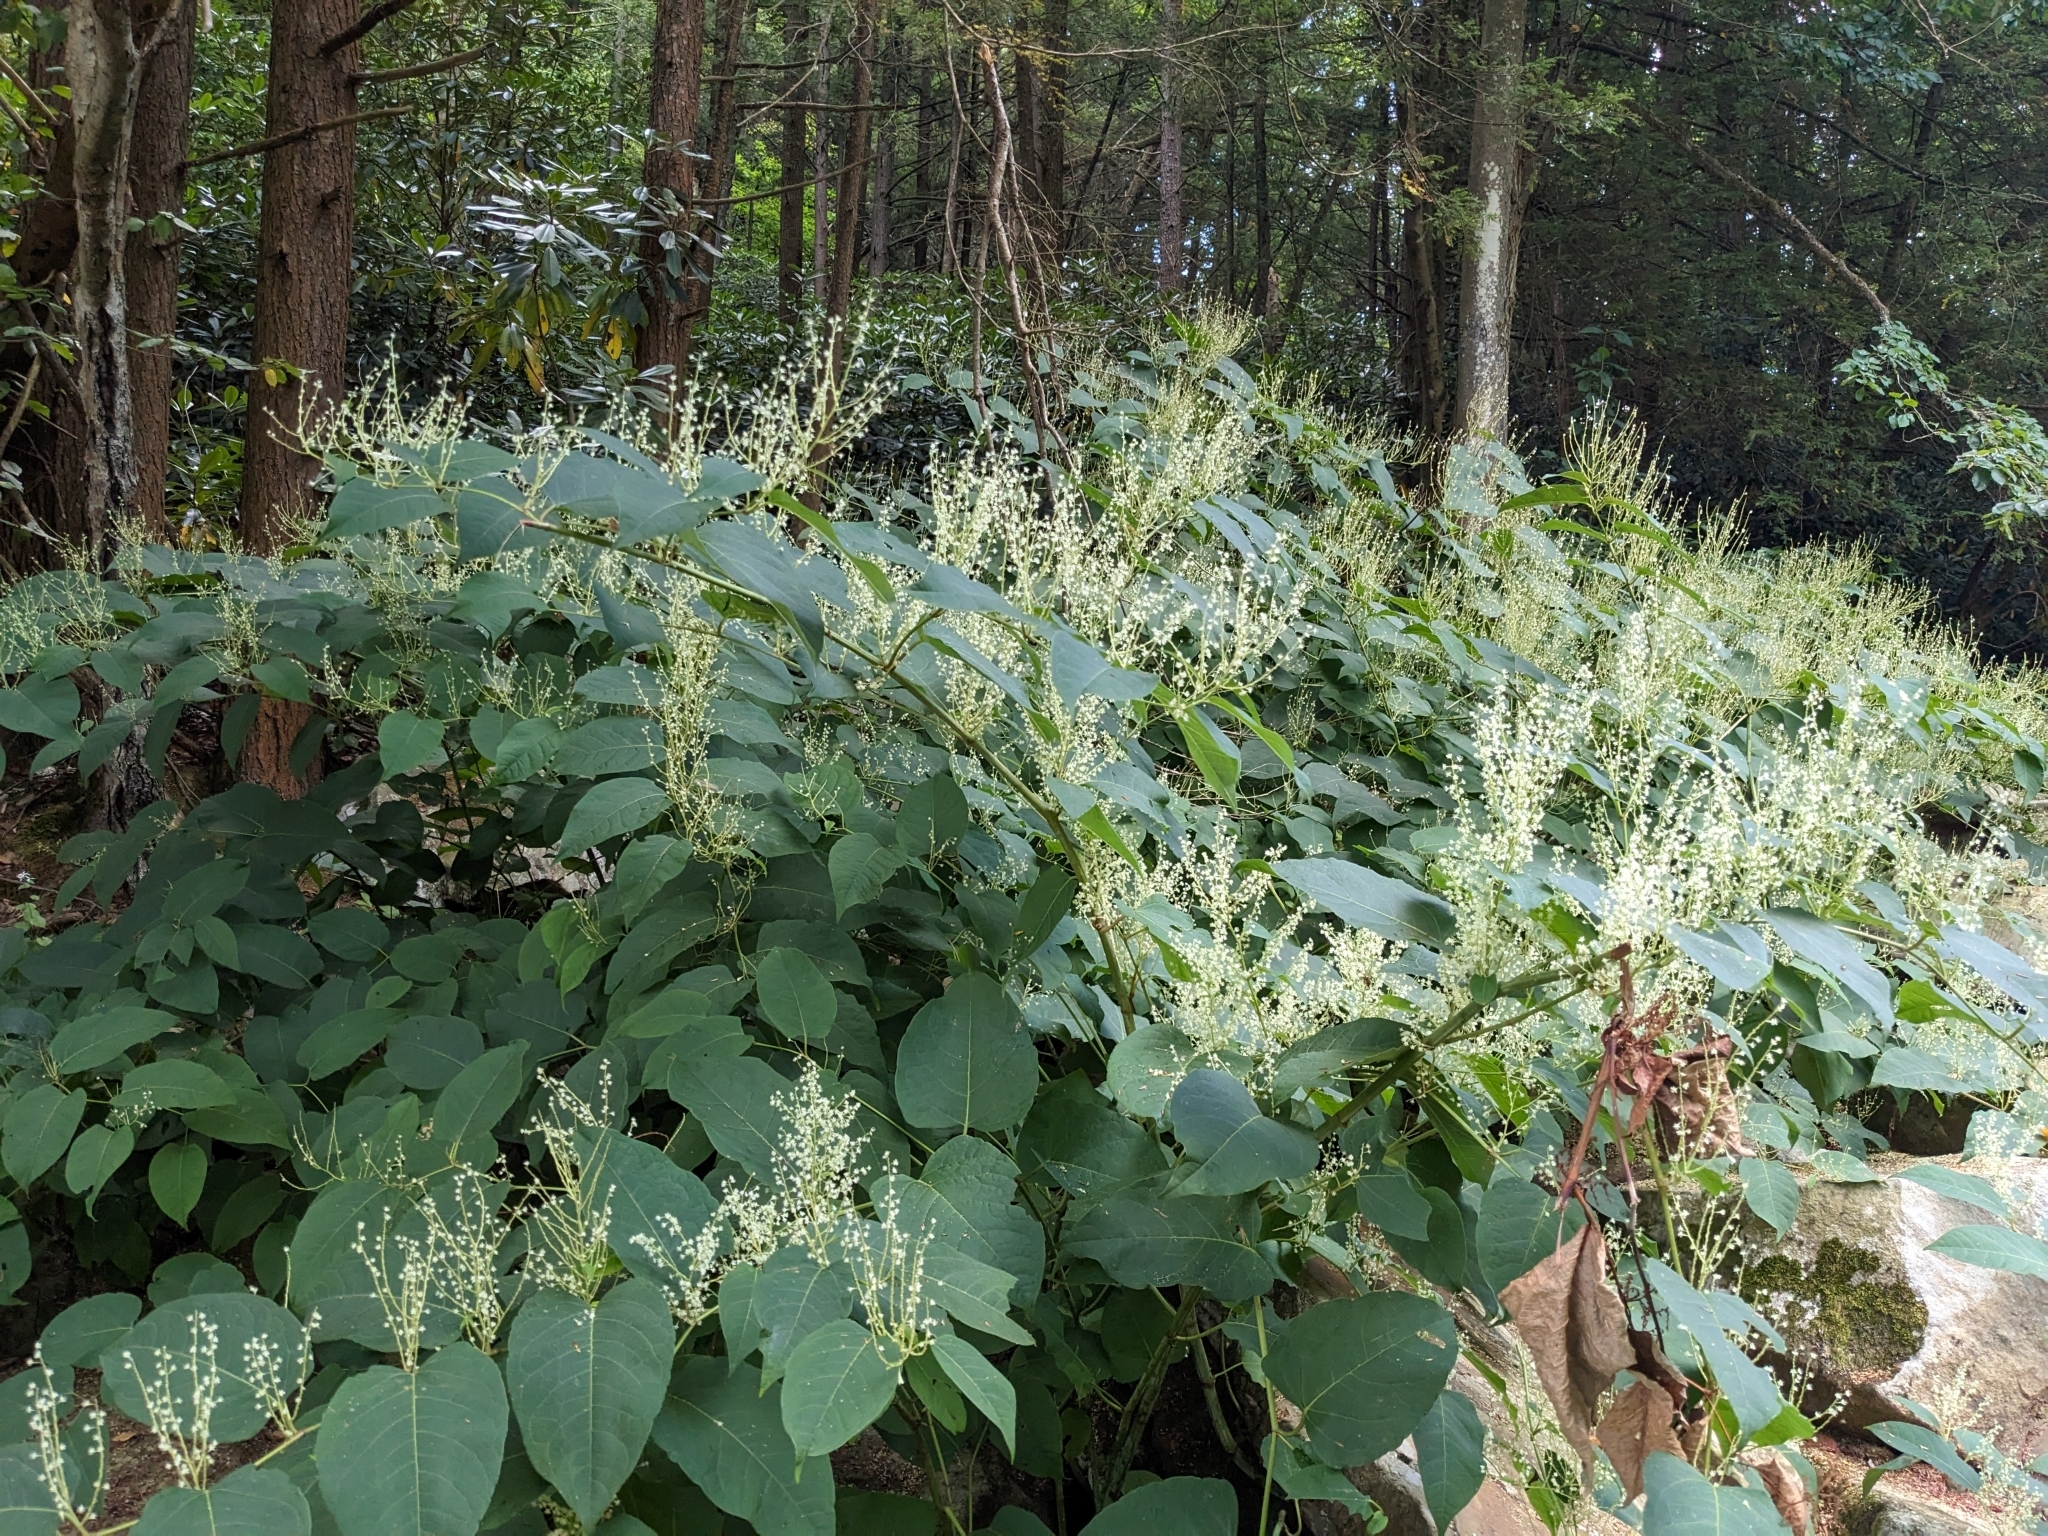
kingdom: Plantae
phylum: Tracheophyta
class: Magnoliopsida
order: Caryophyllales
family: Polygonaceae
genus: Reynoutria
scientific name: Reynoutria japonica
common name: Japanese knotweed
